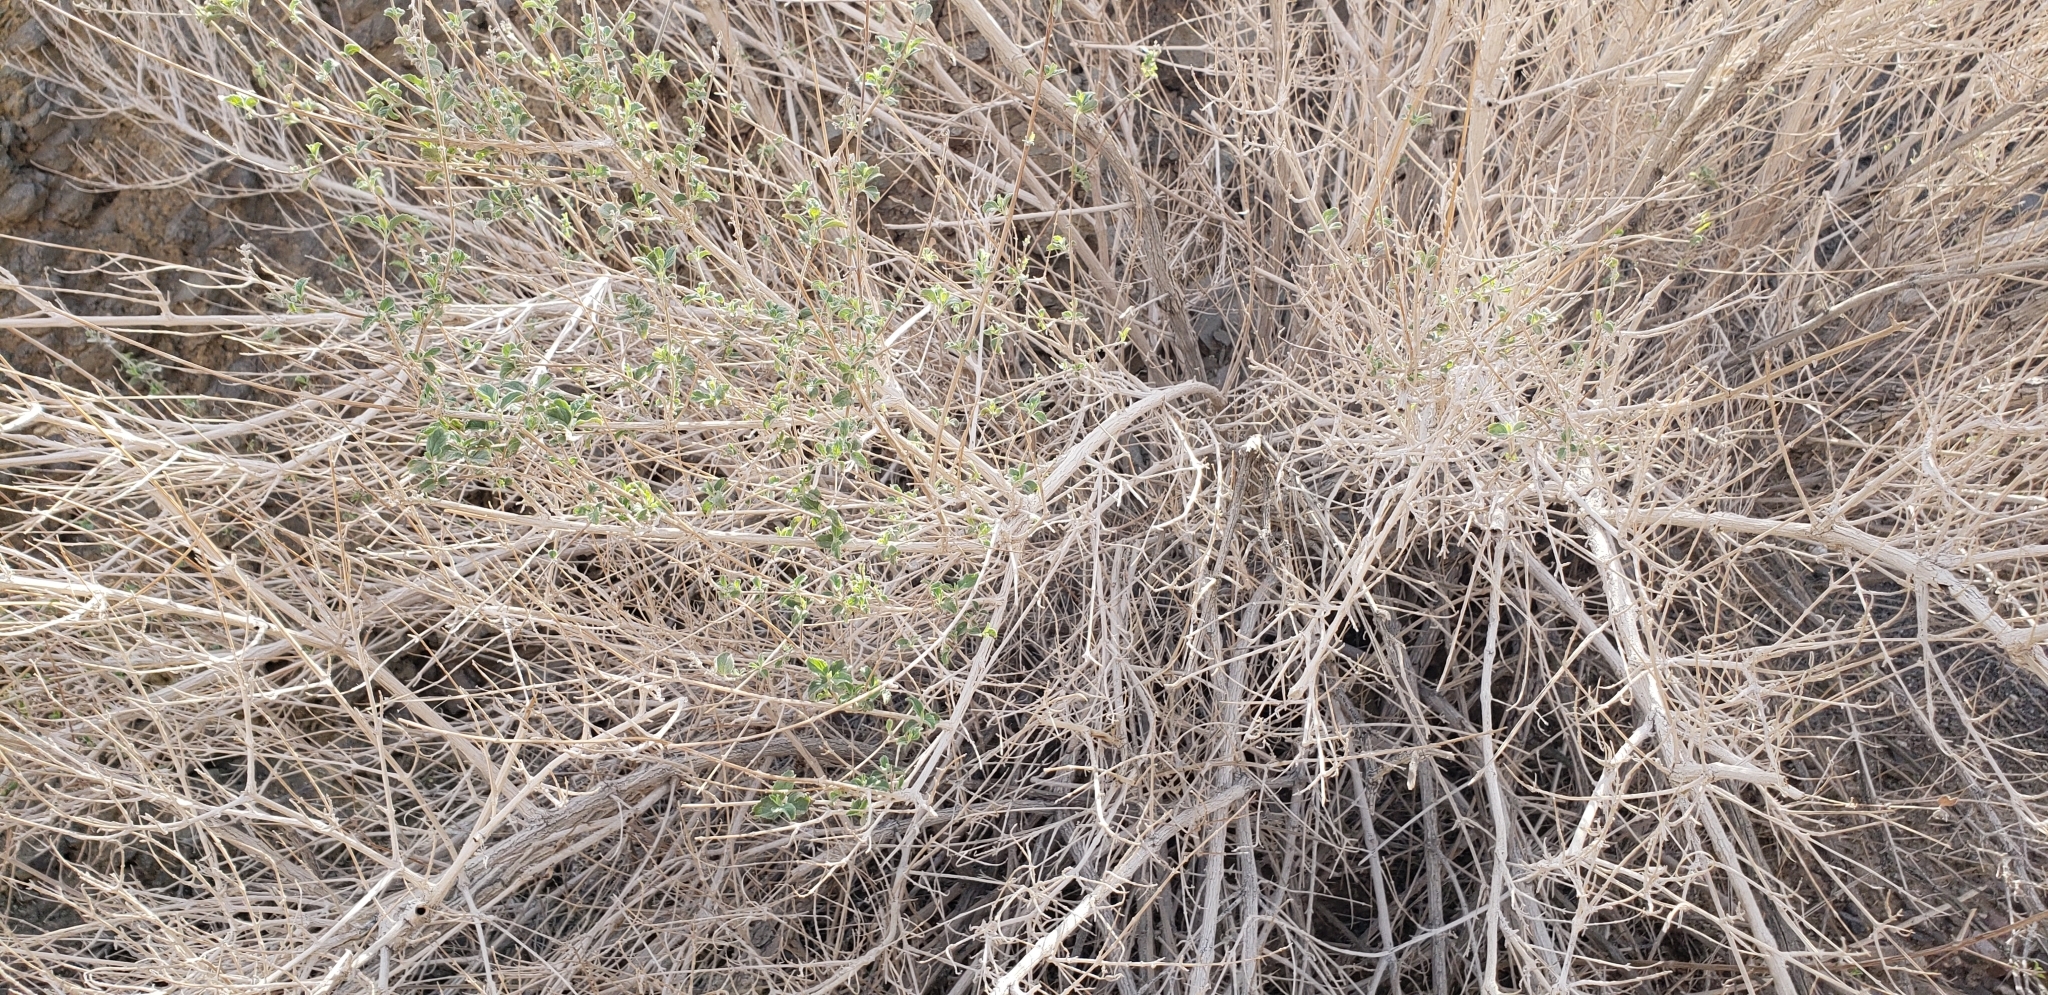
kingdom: Plantae
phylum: Tracheophyta
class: Magnoliopsida
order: Lamiales
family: Lamiaceae
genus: Condea
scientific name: Condea emoryi
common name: Chia
